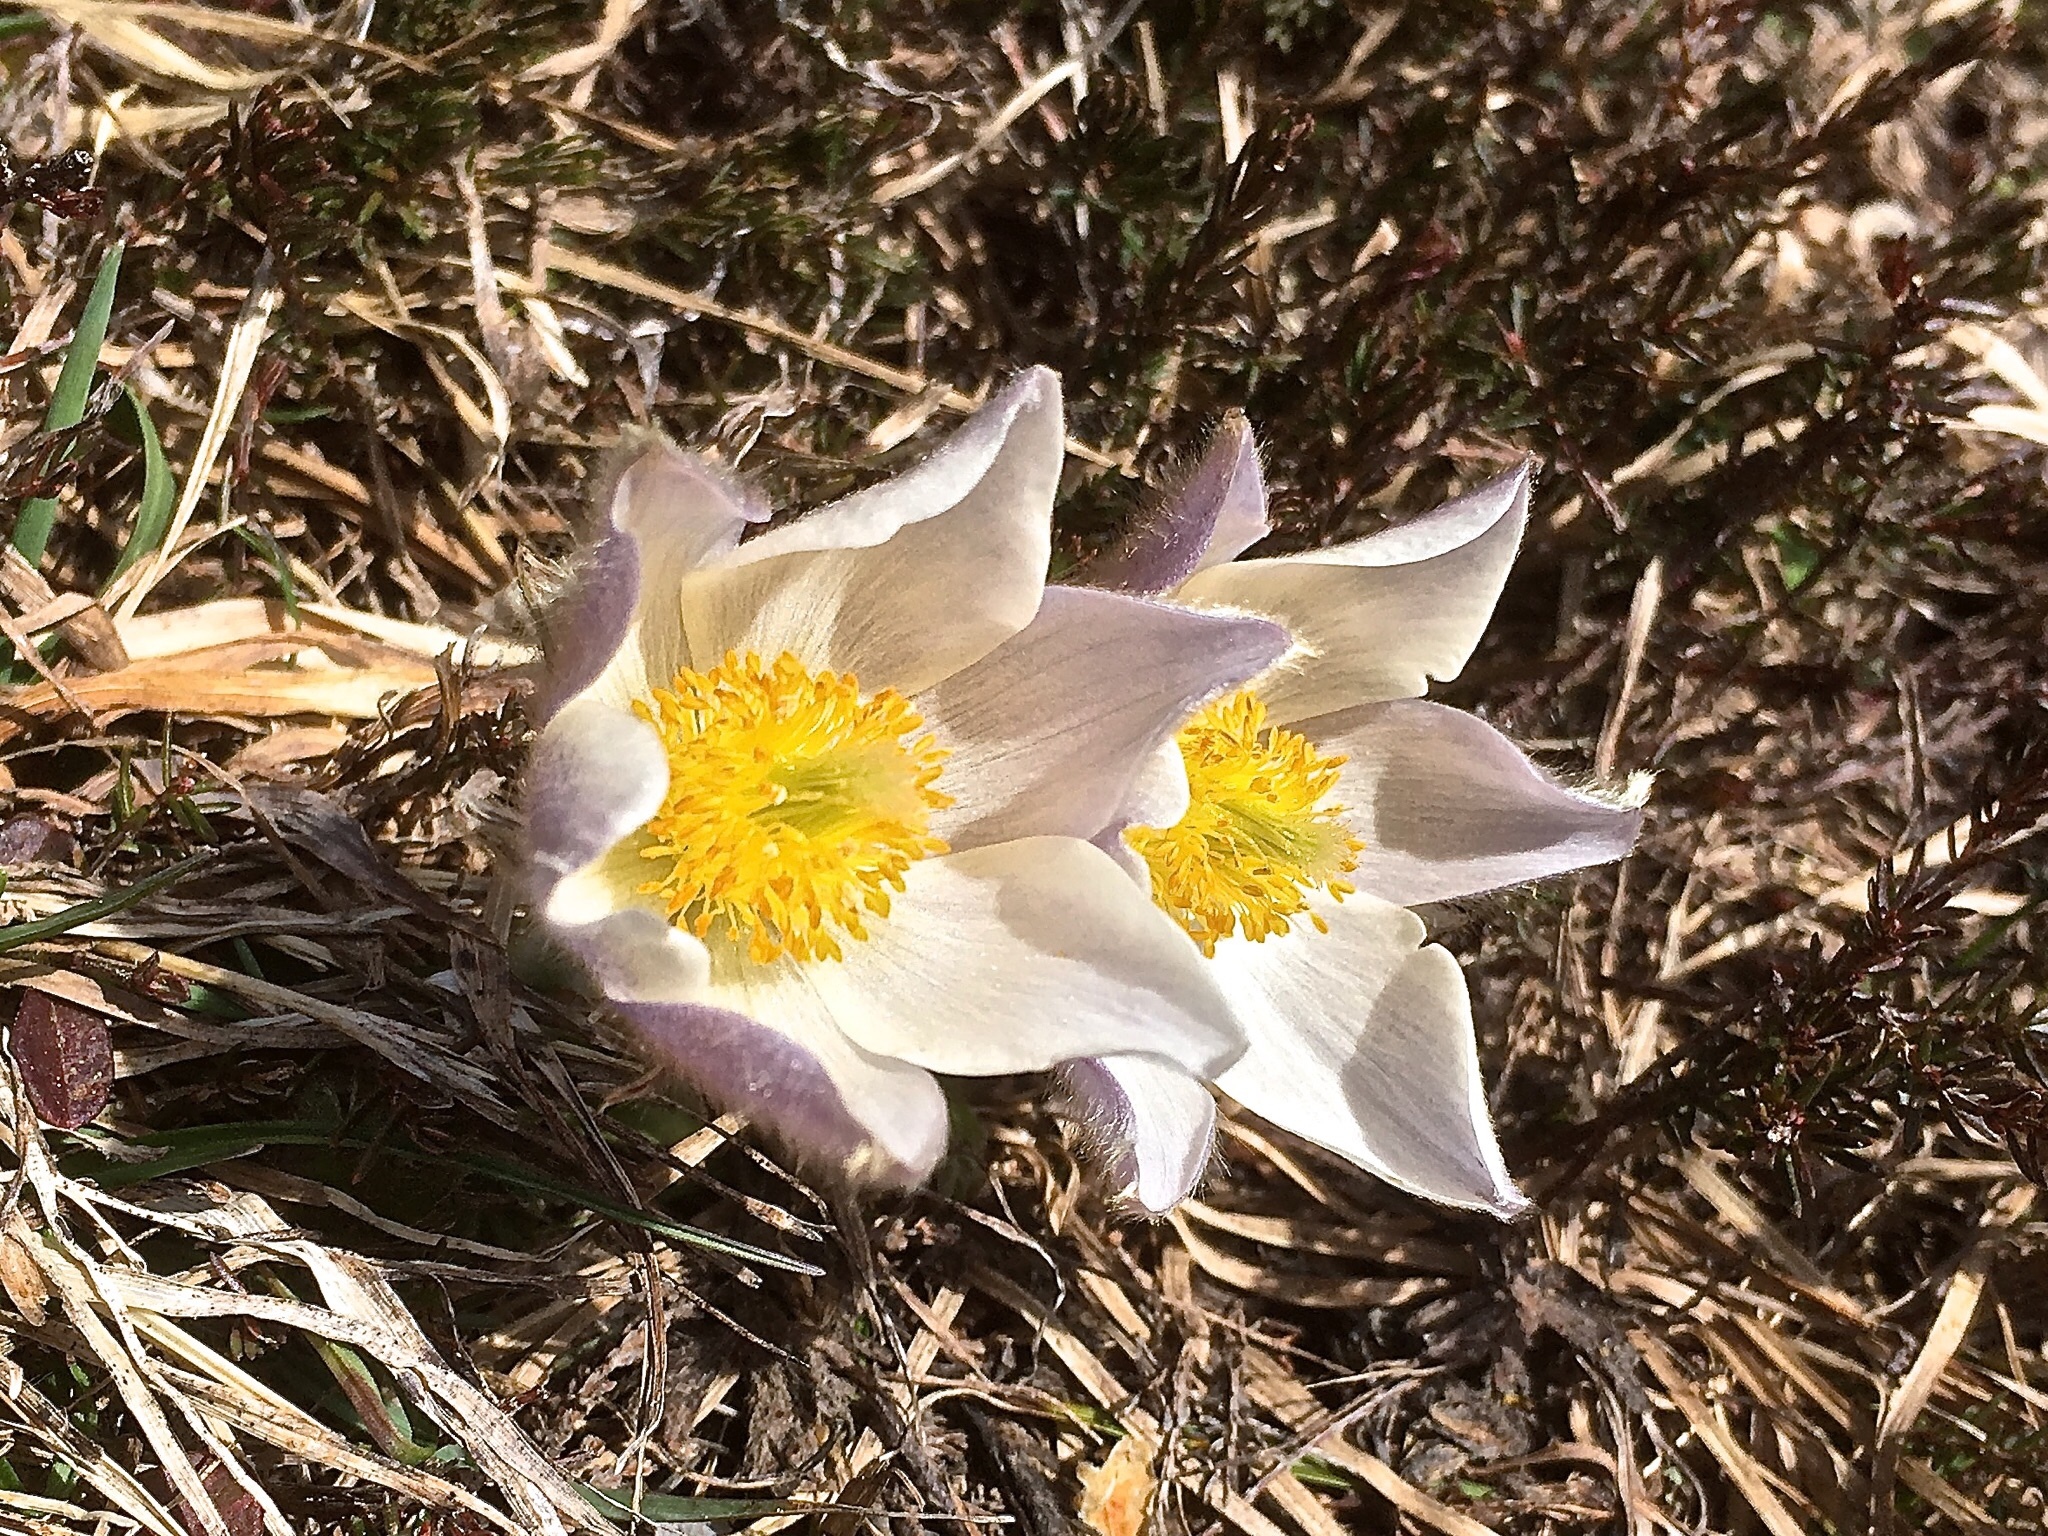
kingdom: Plantae
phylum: Tracheophyta
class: Magnoliopsida
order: Ranunculales
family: Ranunculaceae
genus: Pulsatilla
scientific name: Pulsatilla vernalis
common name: Spring pasque flower
